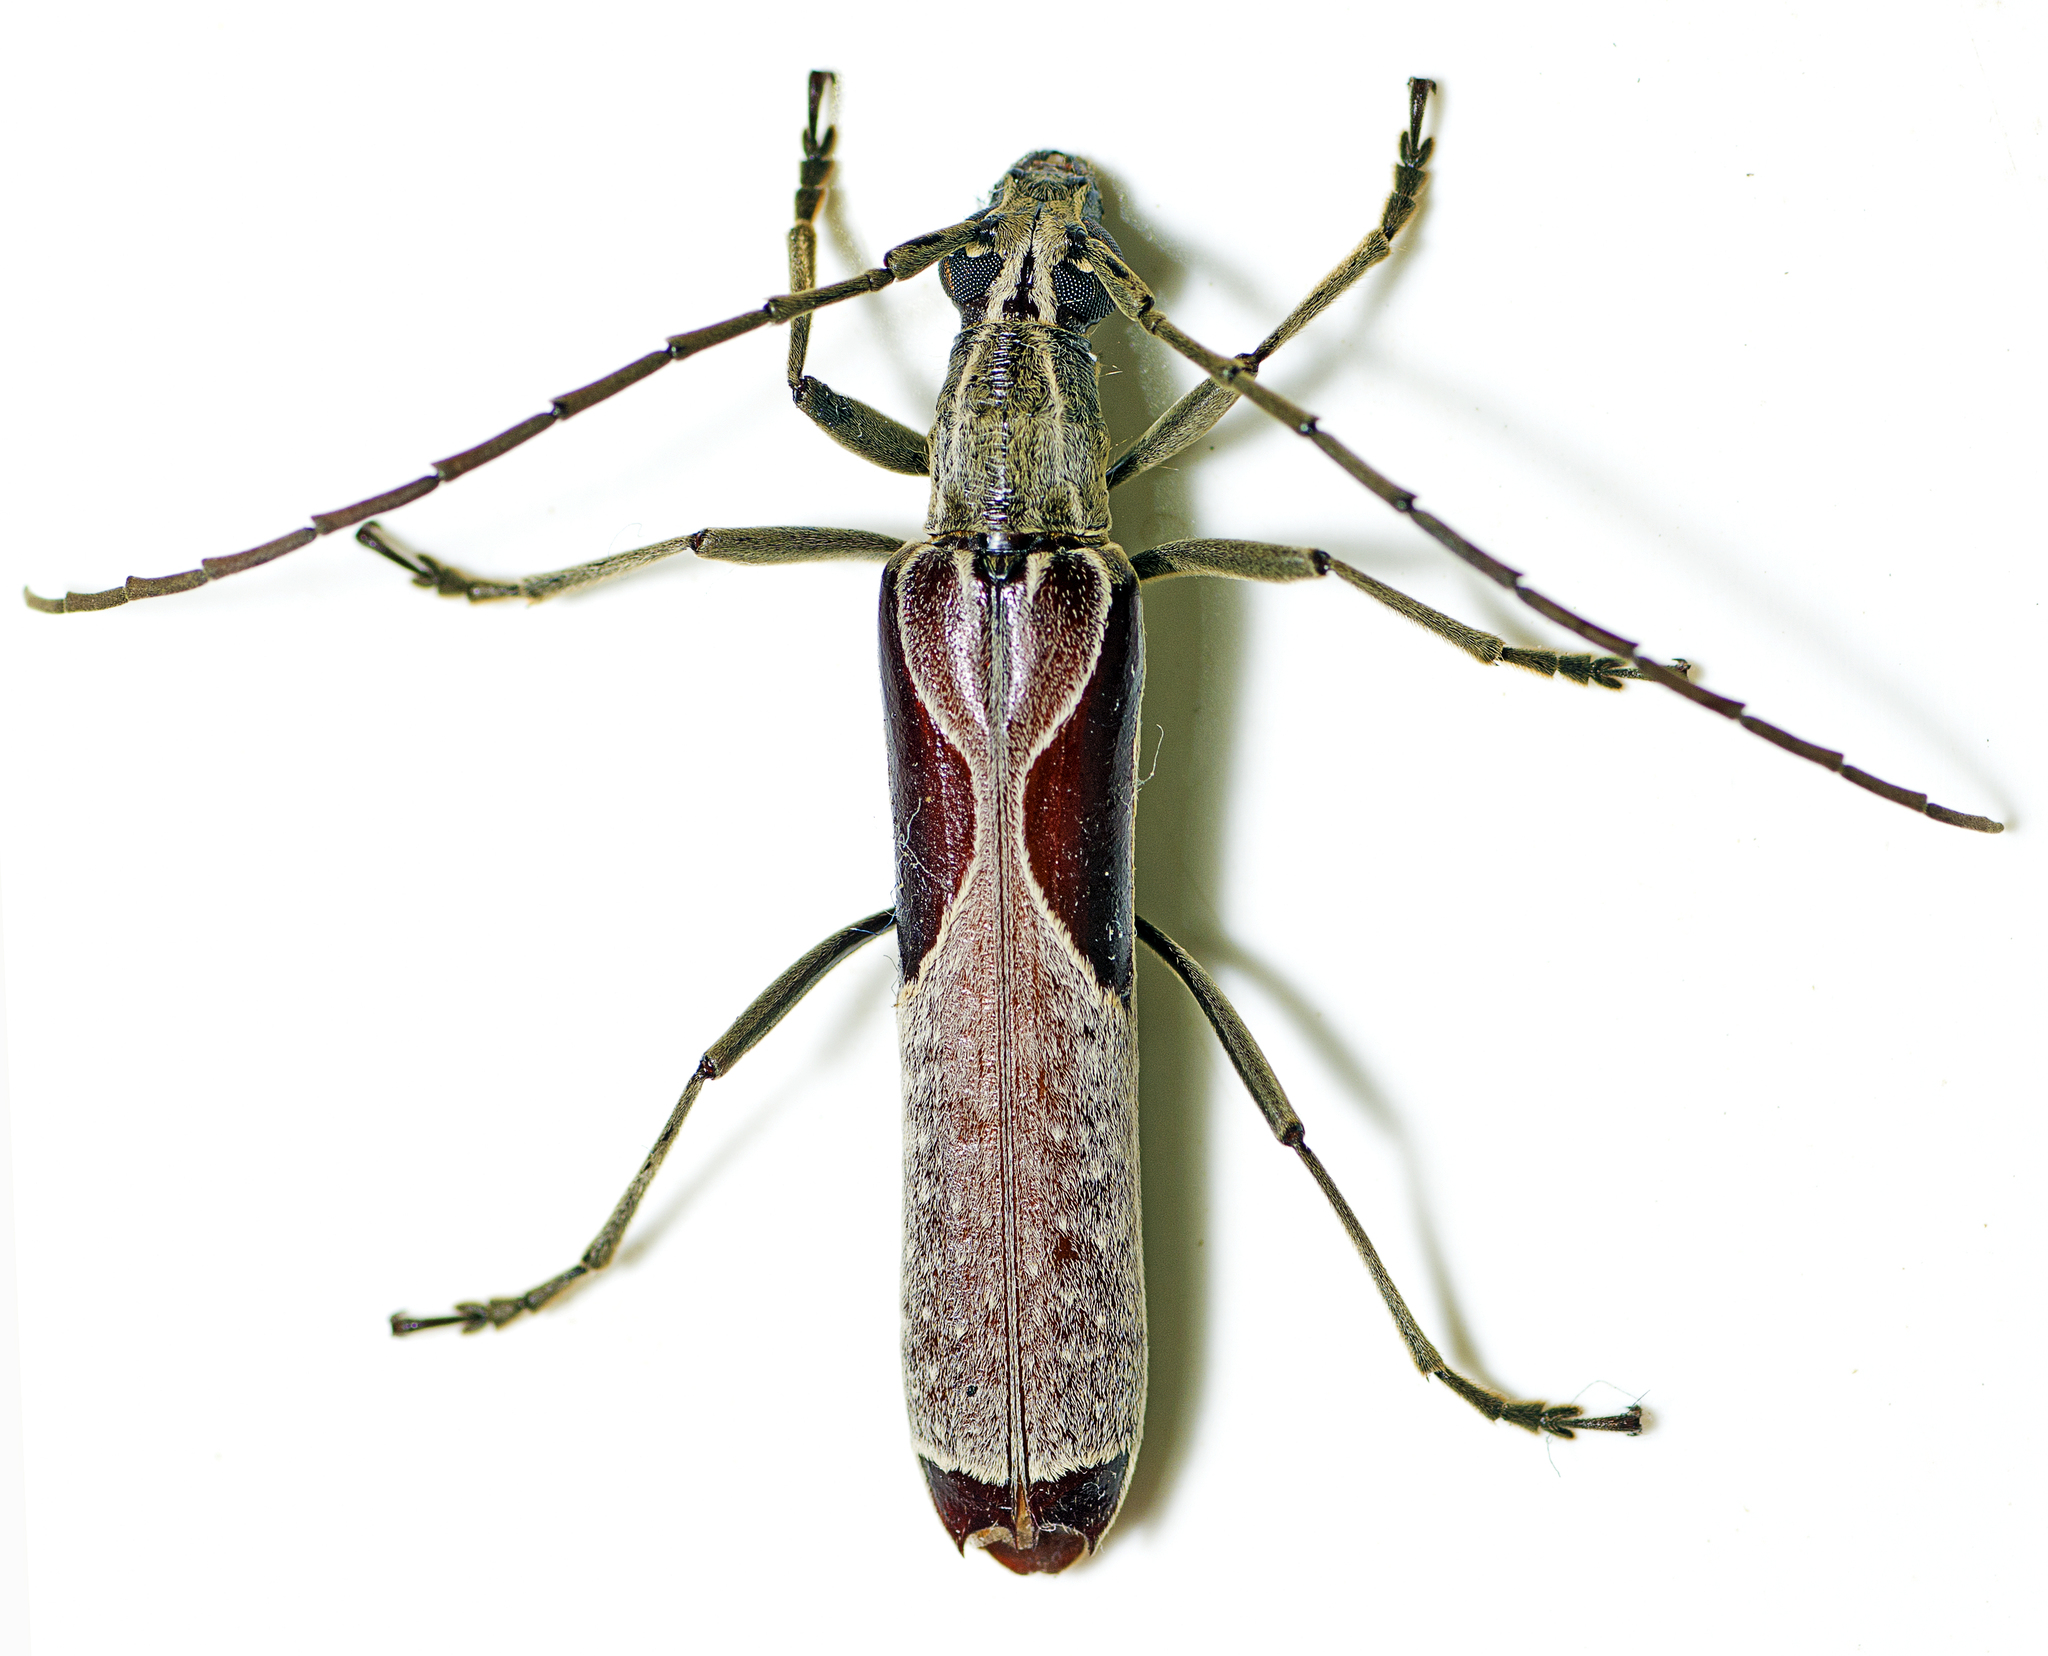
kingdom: Animalia
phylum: Arthropoda
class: Insecta
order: Coleoptera
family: Cerambycidae
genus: Uracanthus
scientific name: Uracanthus triangularis
